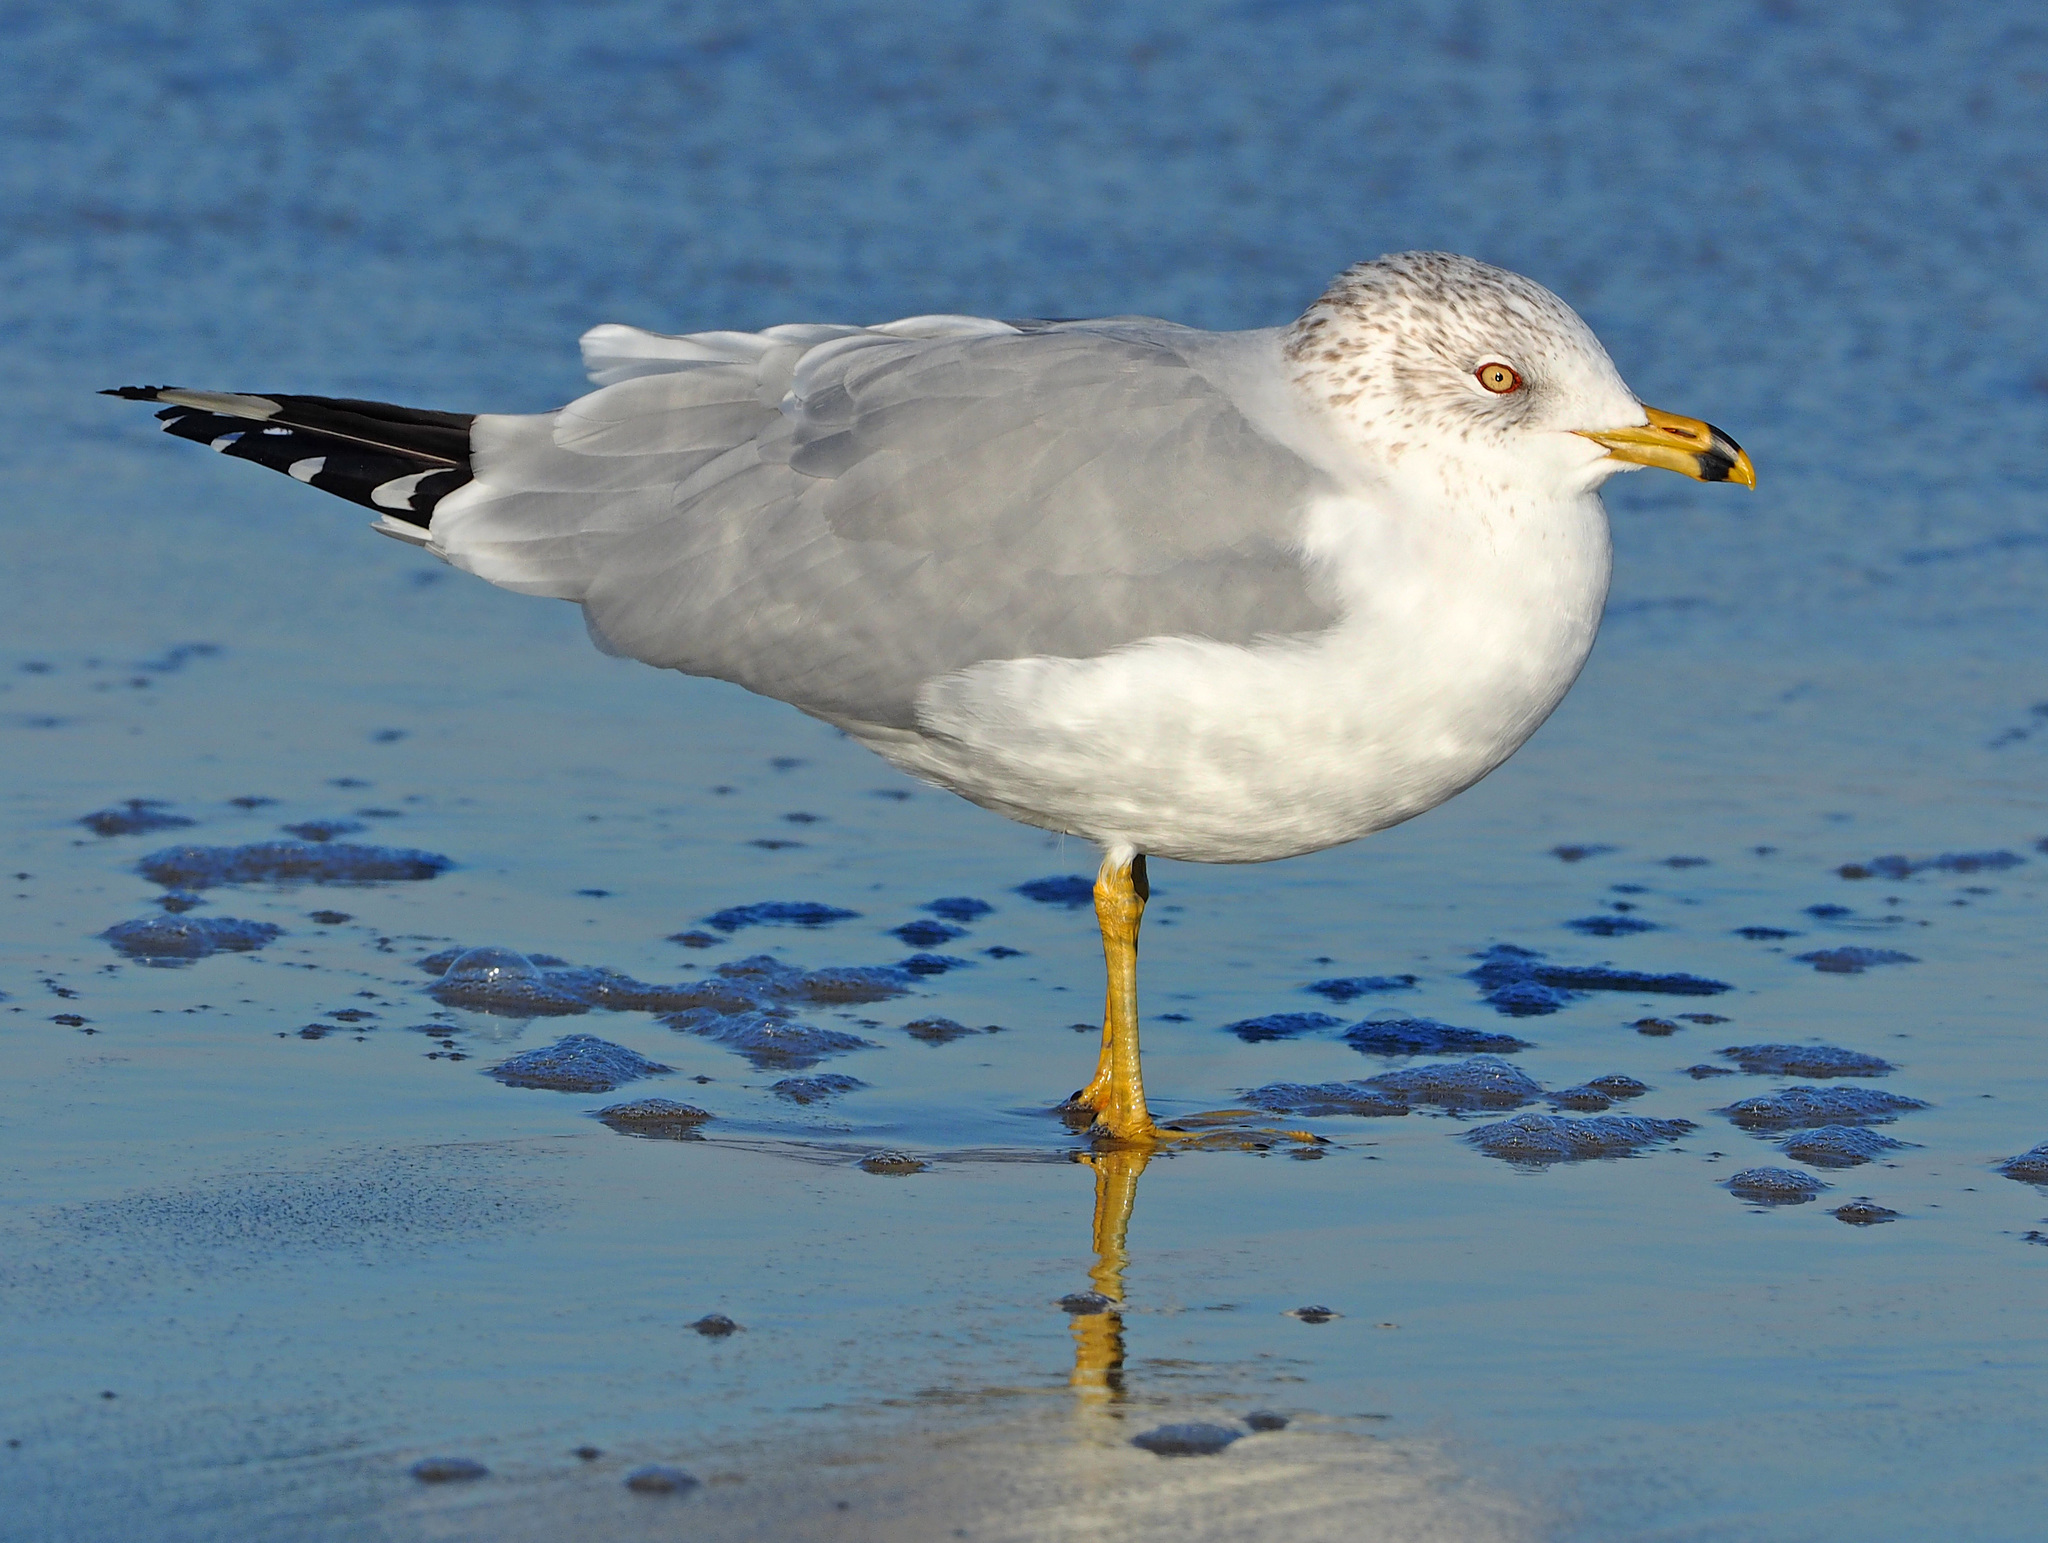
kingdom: Animalia
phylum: Chordata
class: Aves
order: Charadriiformes
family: Laridae
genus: Larus
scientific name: Larus delawarensis
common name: Ring-billed gull
